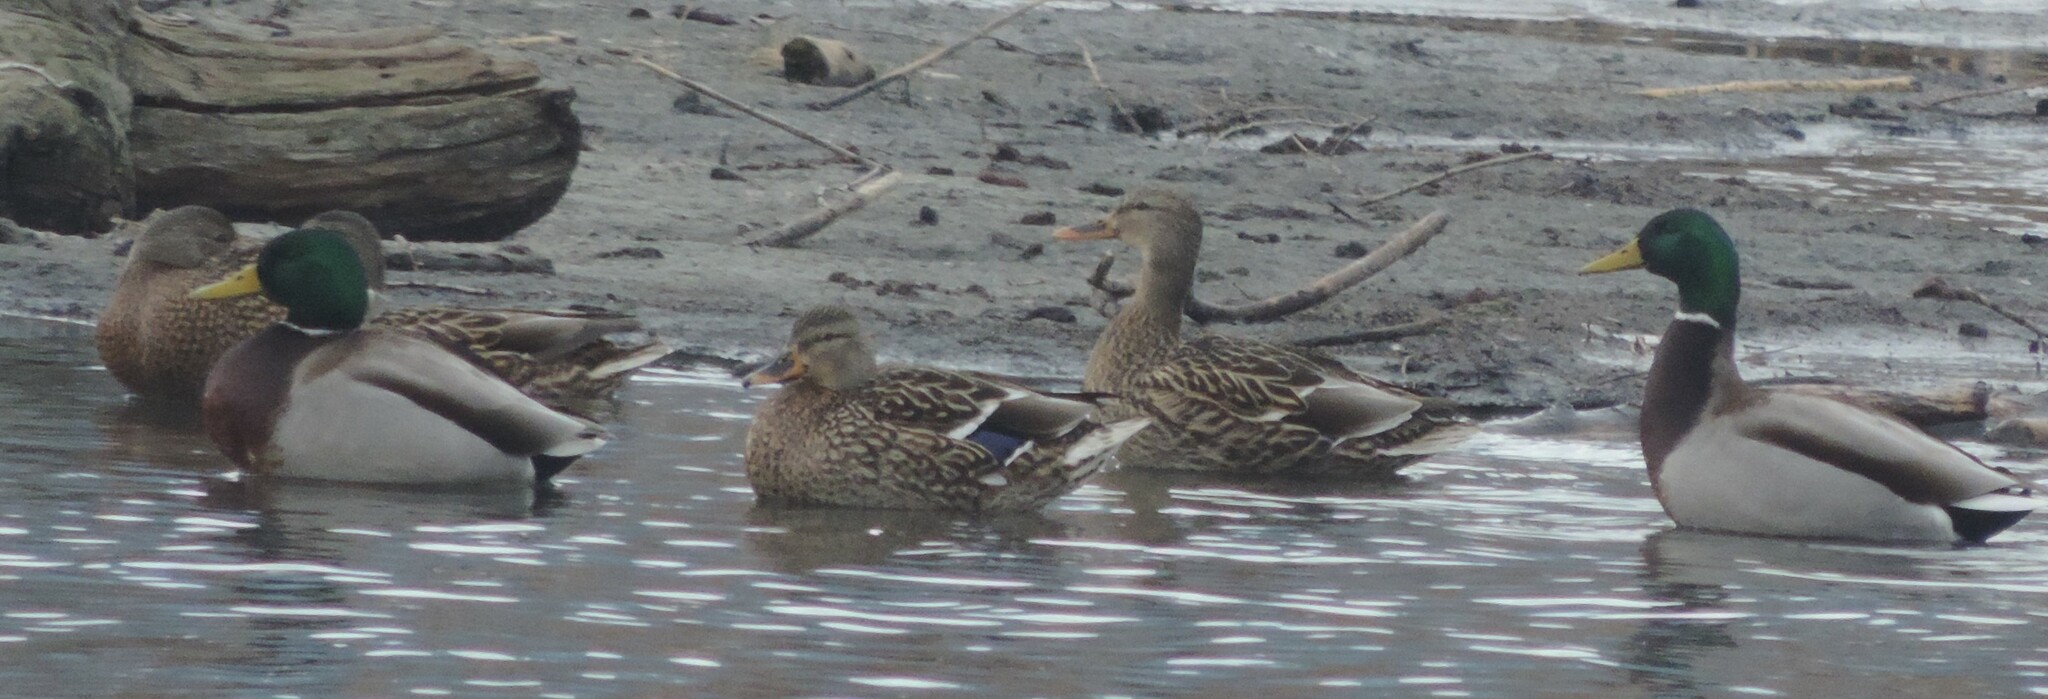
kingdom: Animalia
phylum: Chordata
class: Aves
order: Anseriformes
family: Anatidae
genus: Anas
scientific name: Anas platyrhynchos
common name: Mallard
